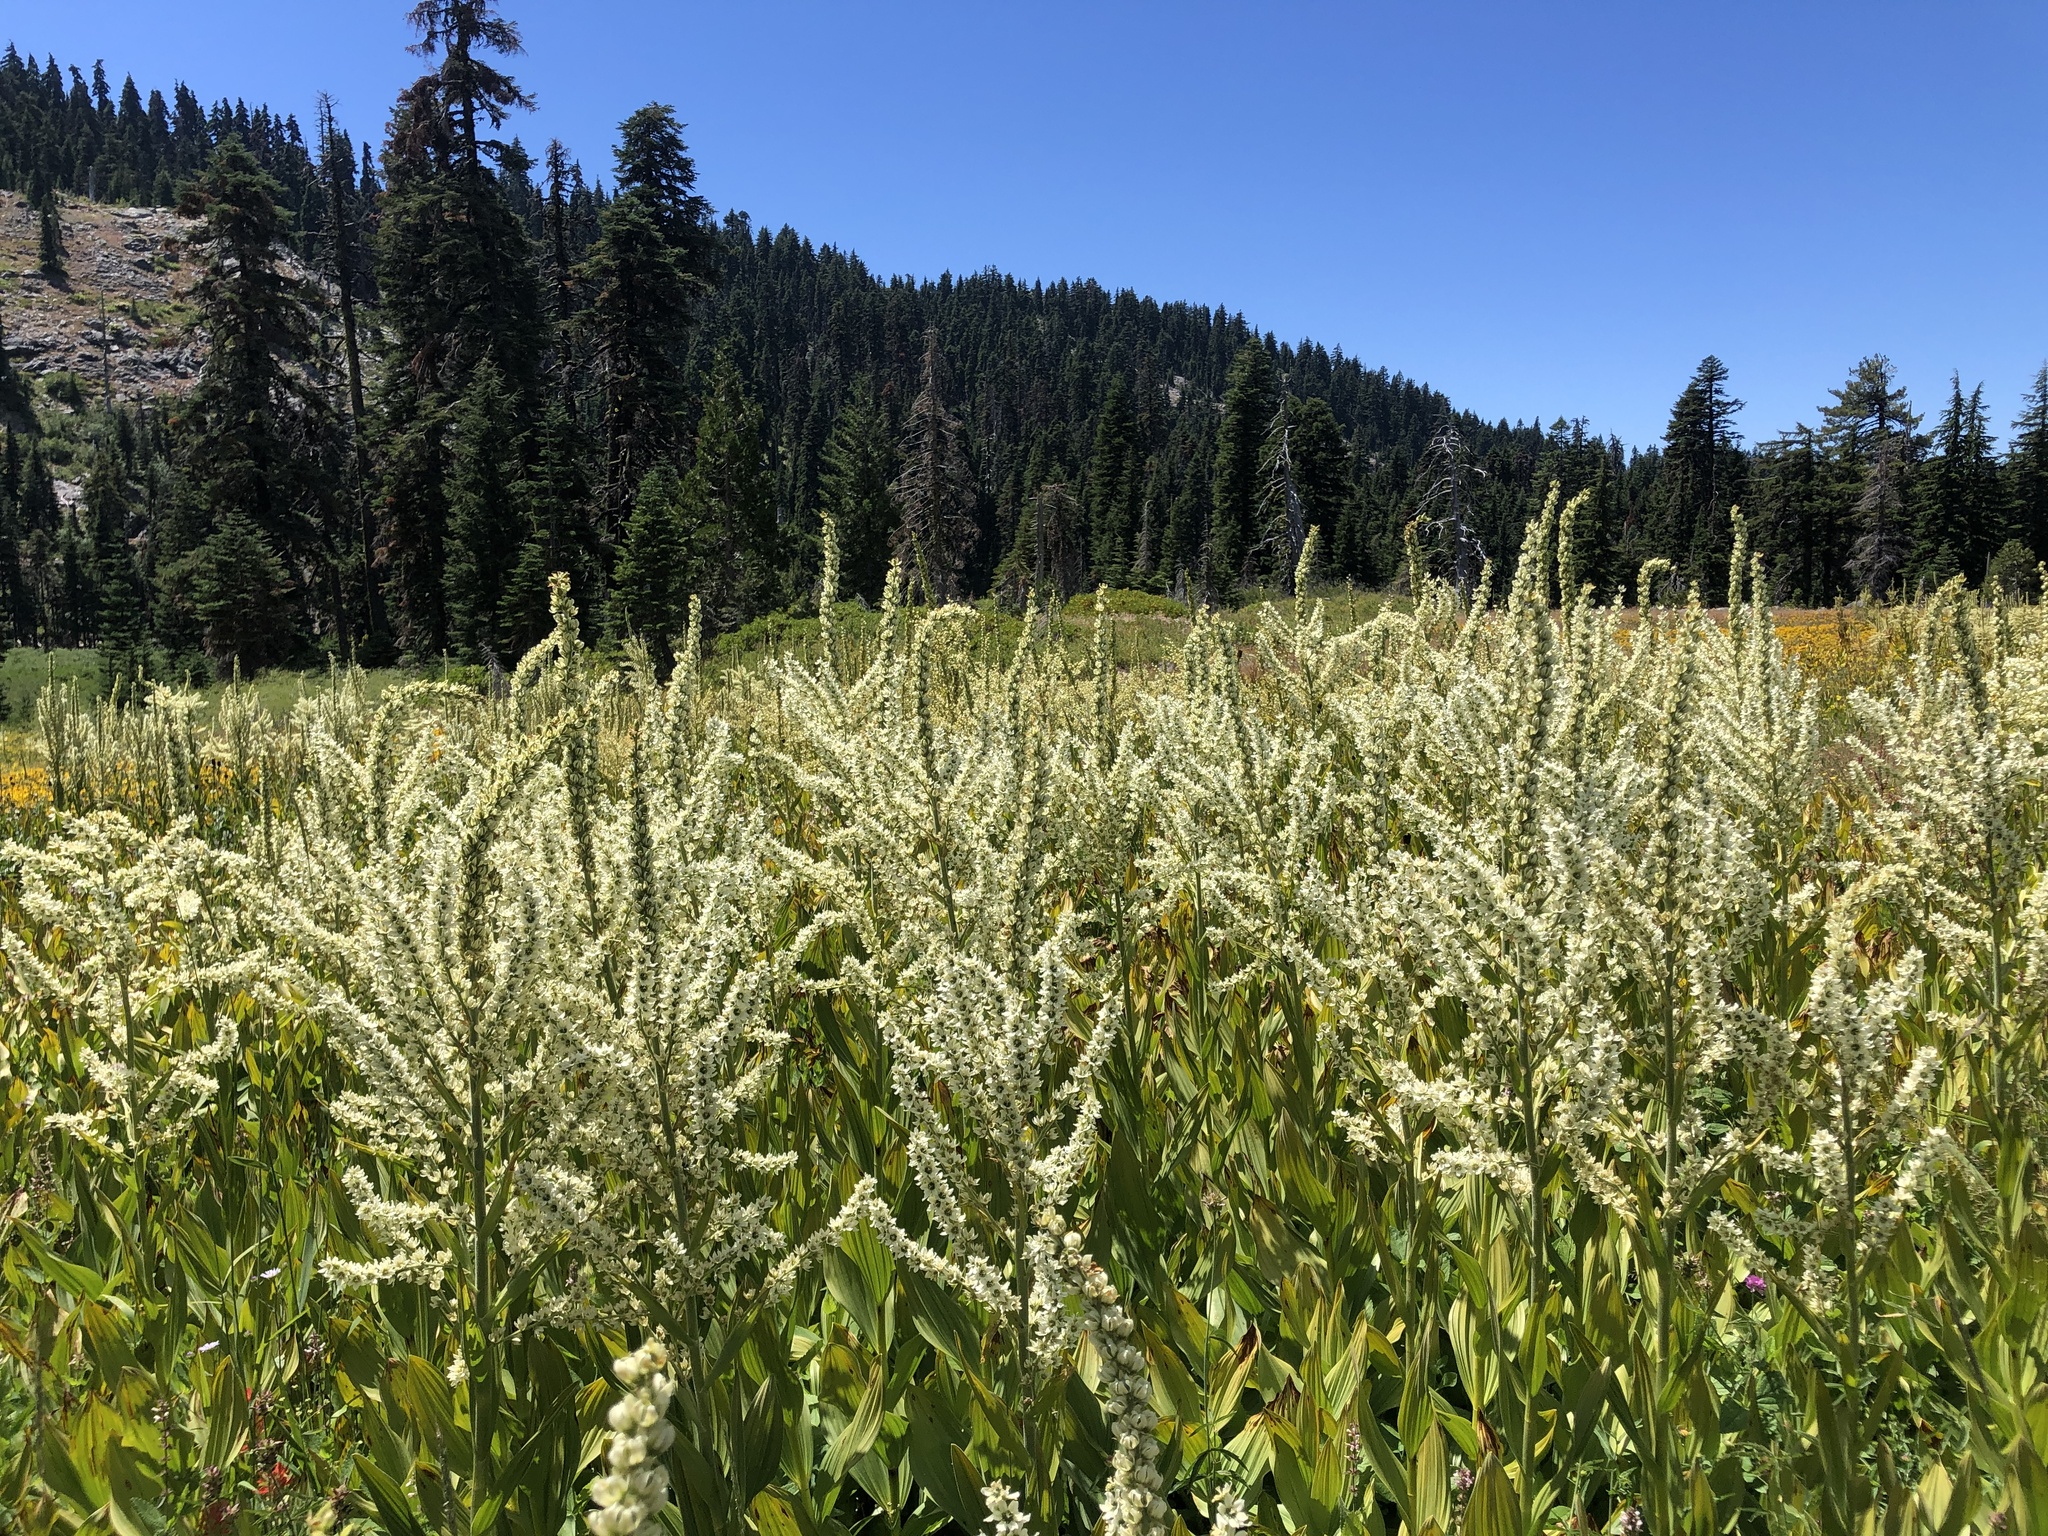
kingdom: Plantae
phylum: Tracheophyta
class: Liliopsida
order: Liliales
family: Melanthiaceae
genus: Veratrum
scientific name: Veratrum californicum
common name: California veratrum
